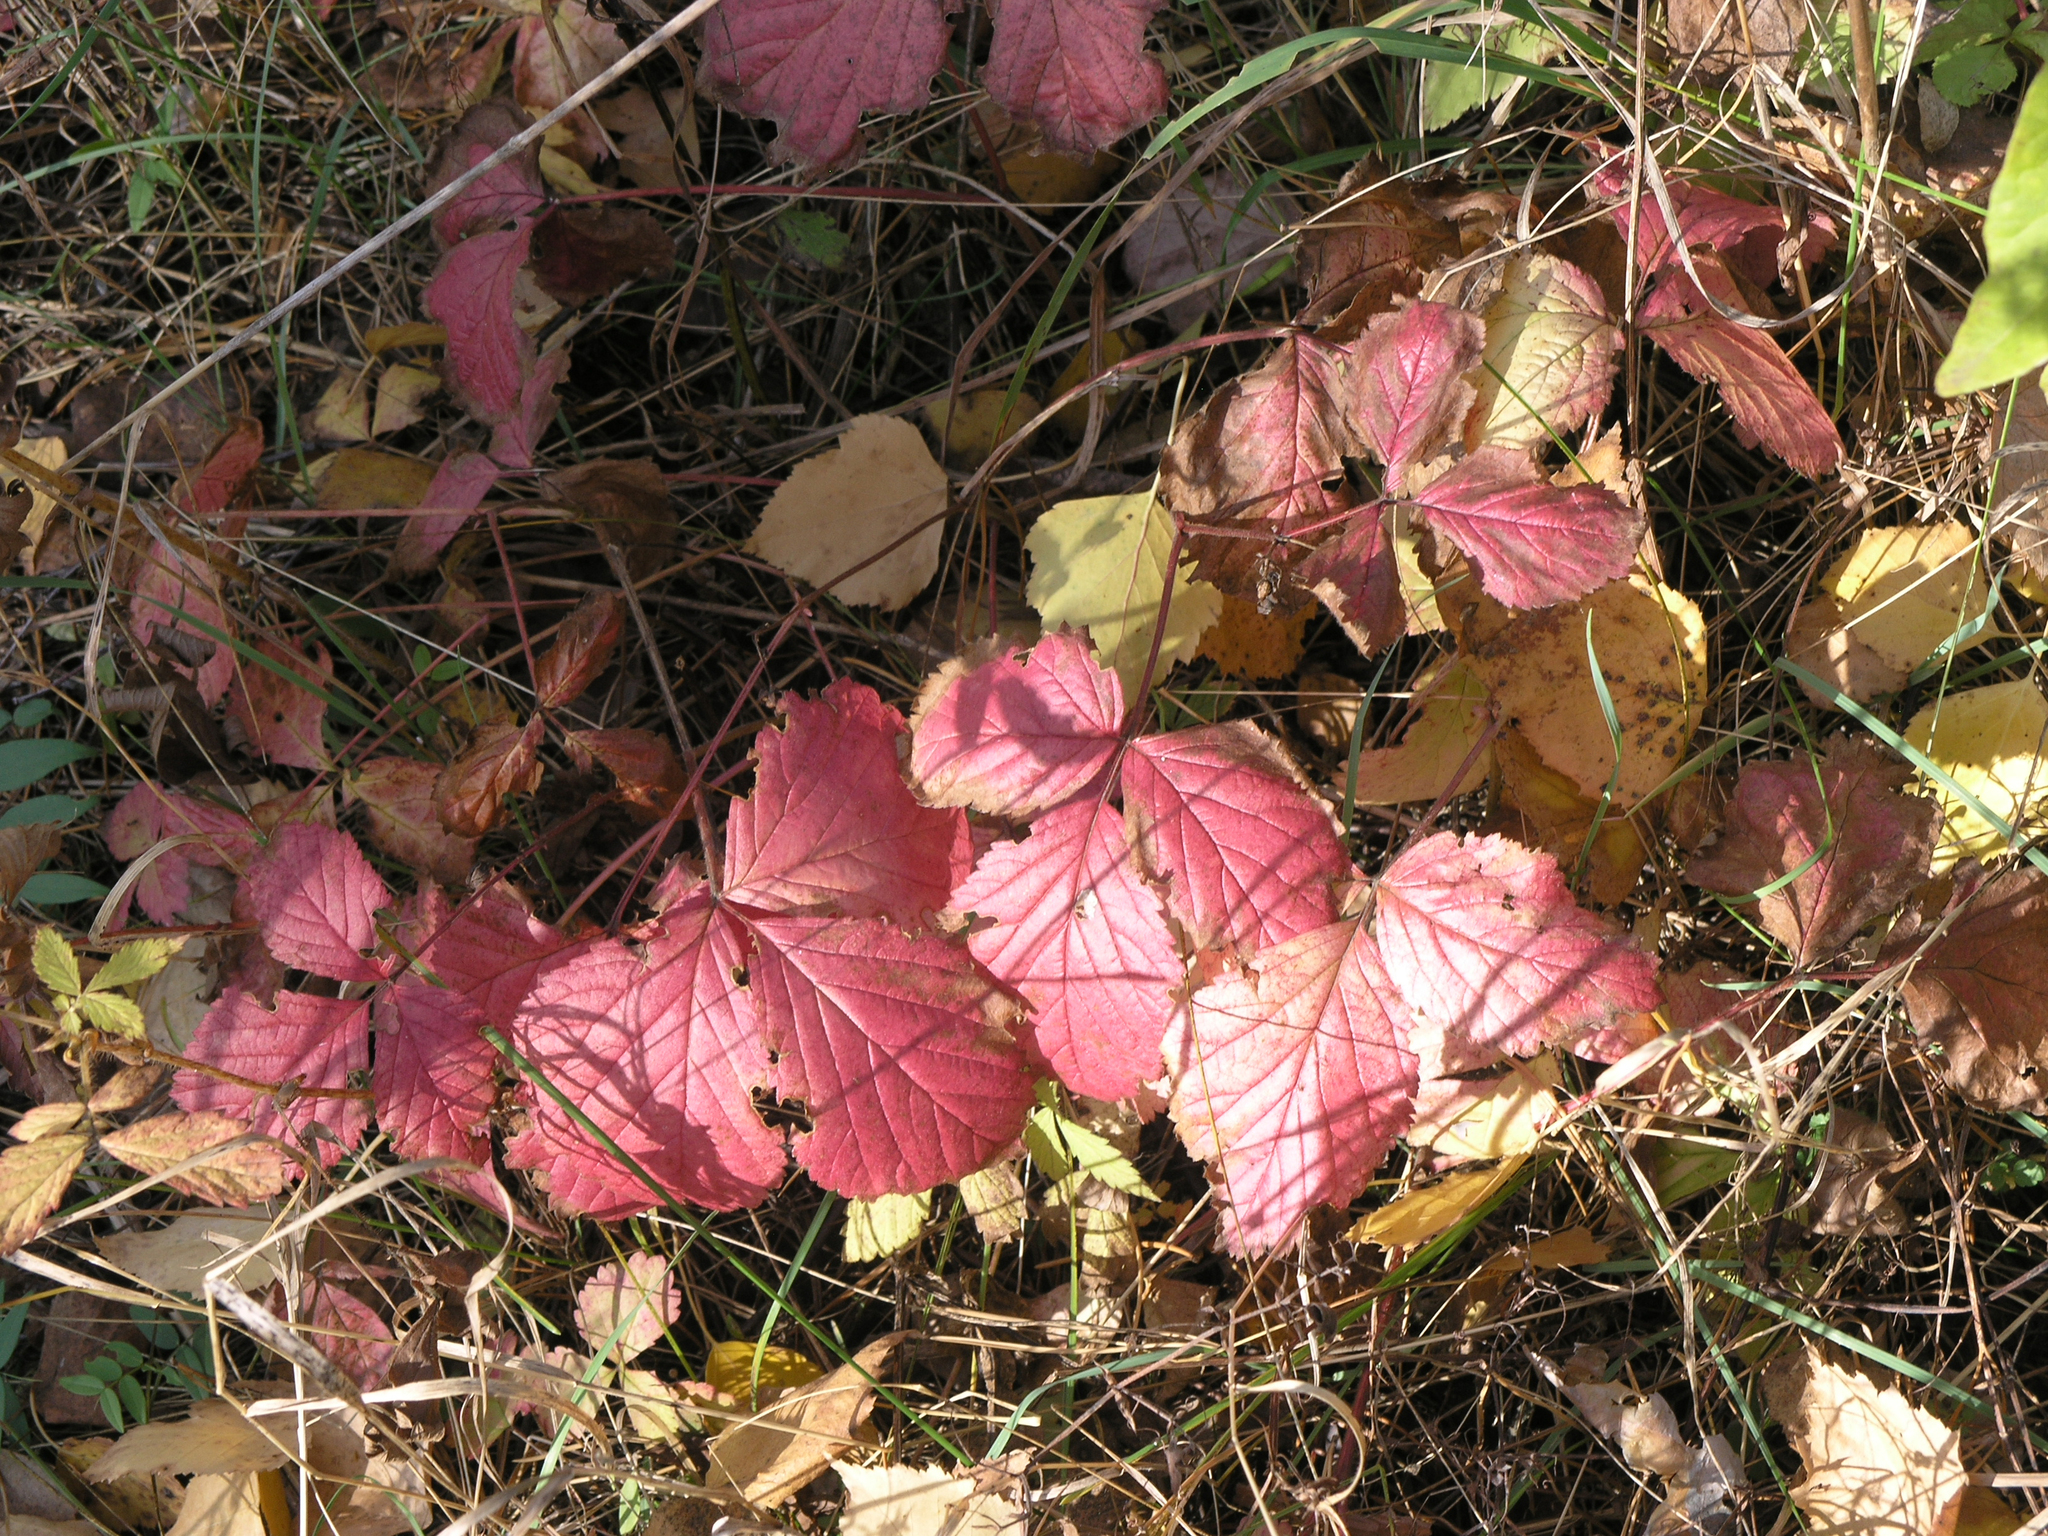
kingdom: Plantae
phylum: Tracheophyta
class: Magnoliopsida
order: Rosales
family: Rosaceae
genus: Rubus
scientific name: Rubus idaeus
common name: Raspberry
